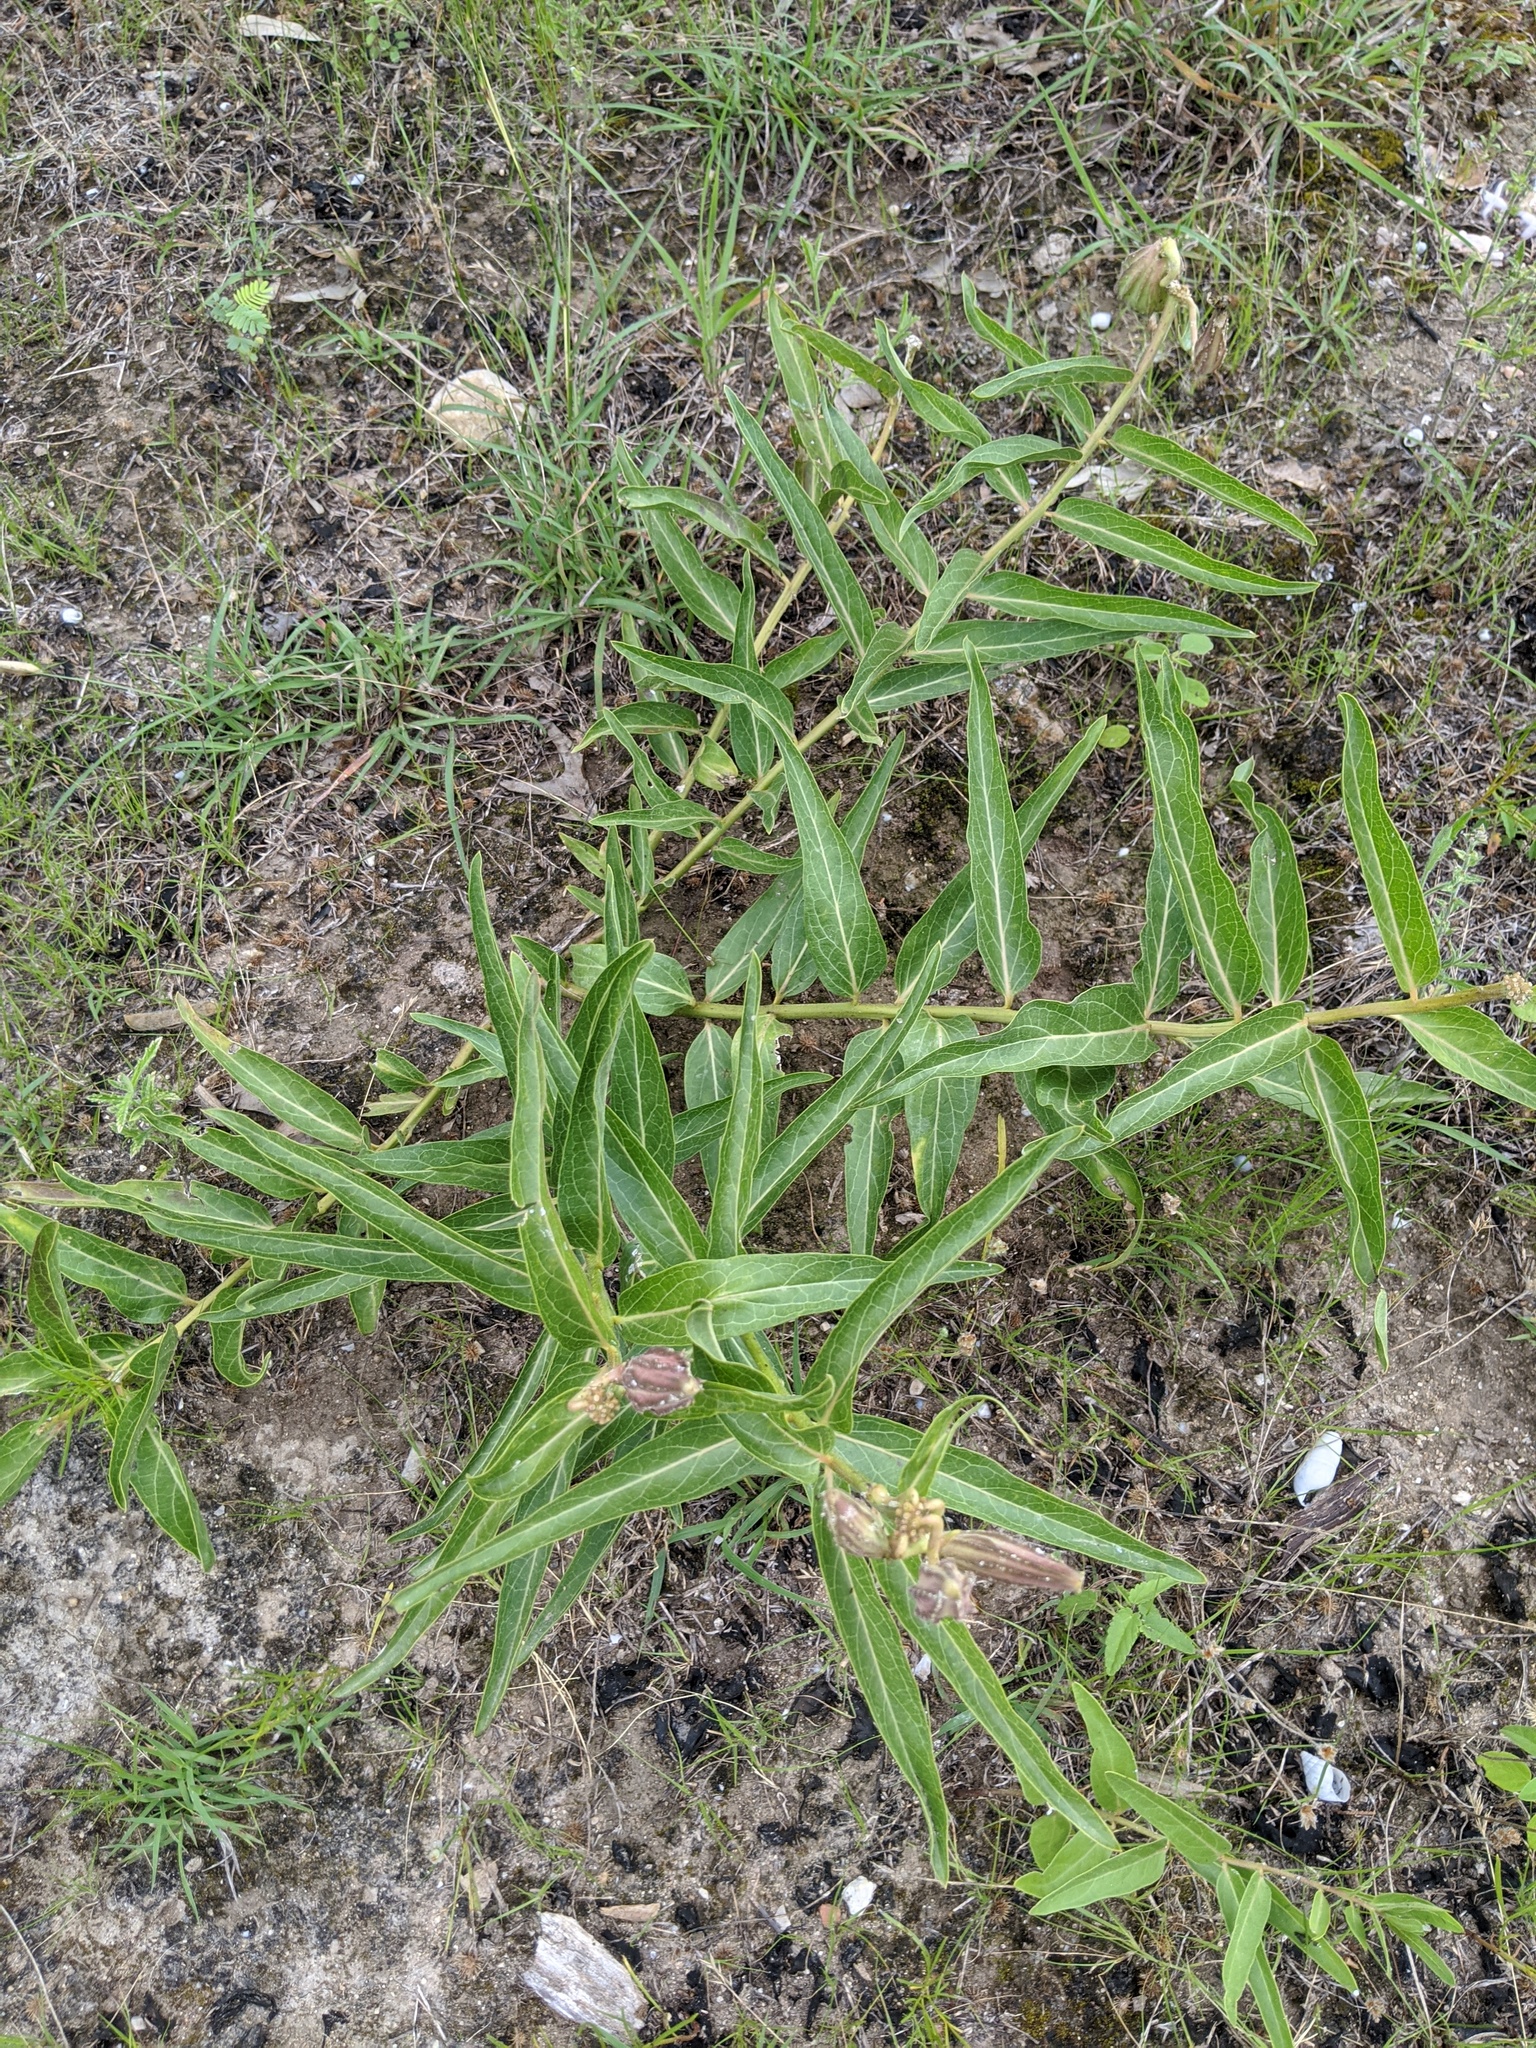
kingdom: Plantae
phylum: Tracheophyta
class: Magnoliopsida
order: Gentianales
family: Apocynaceae
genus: Asclepias
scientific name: Asclepias asperula
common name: Antelope horns
